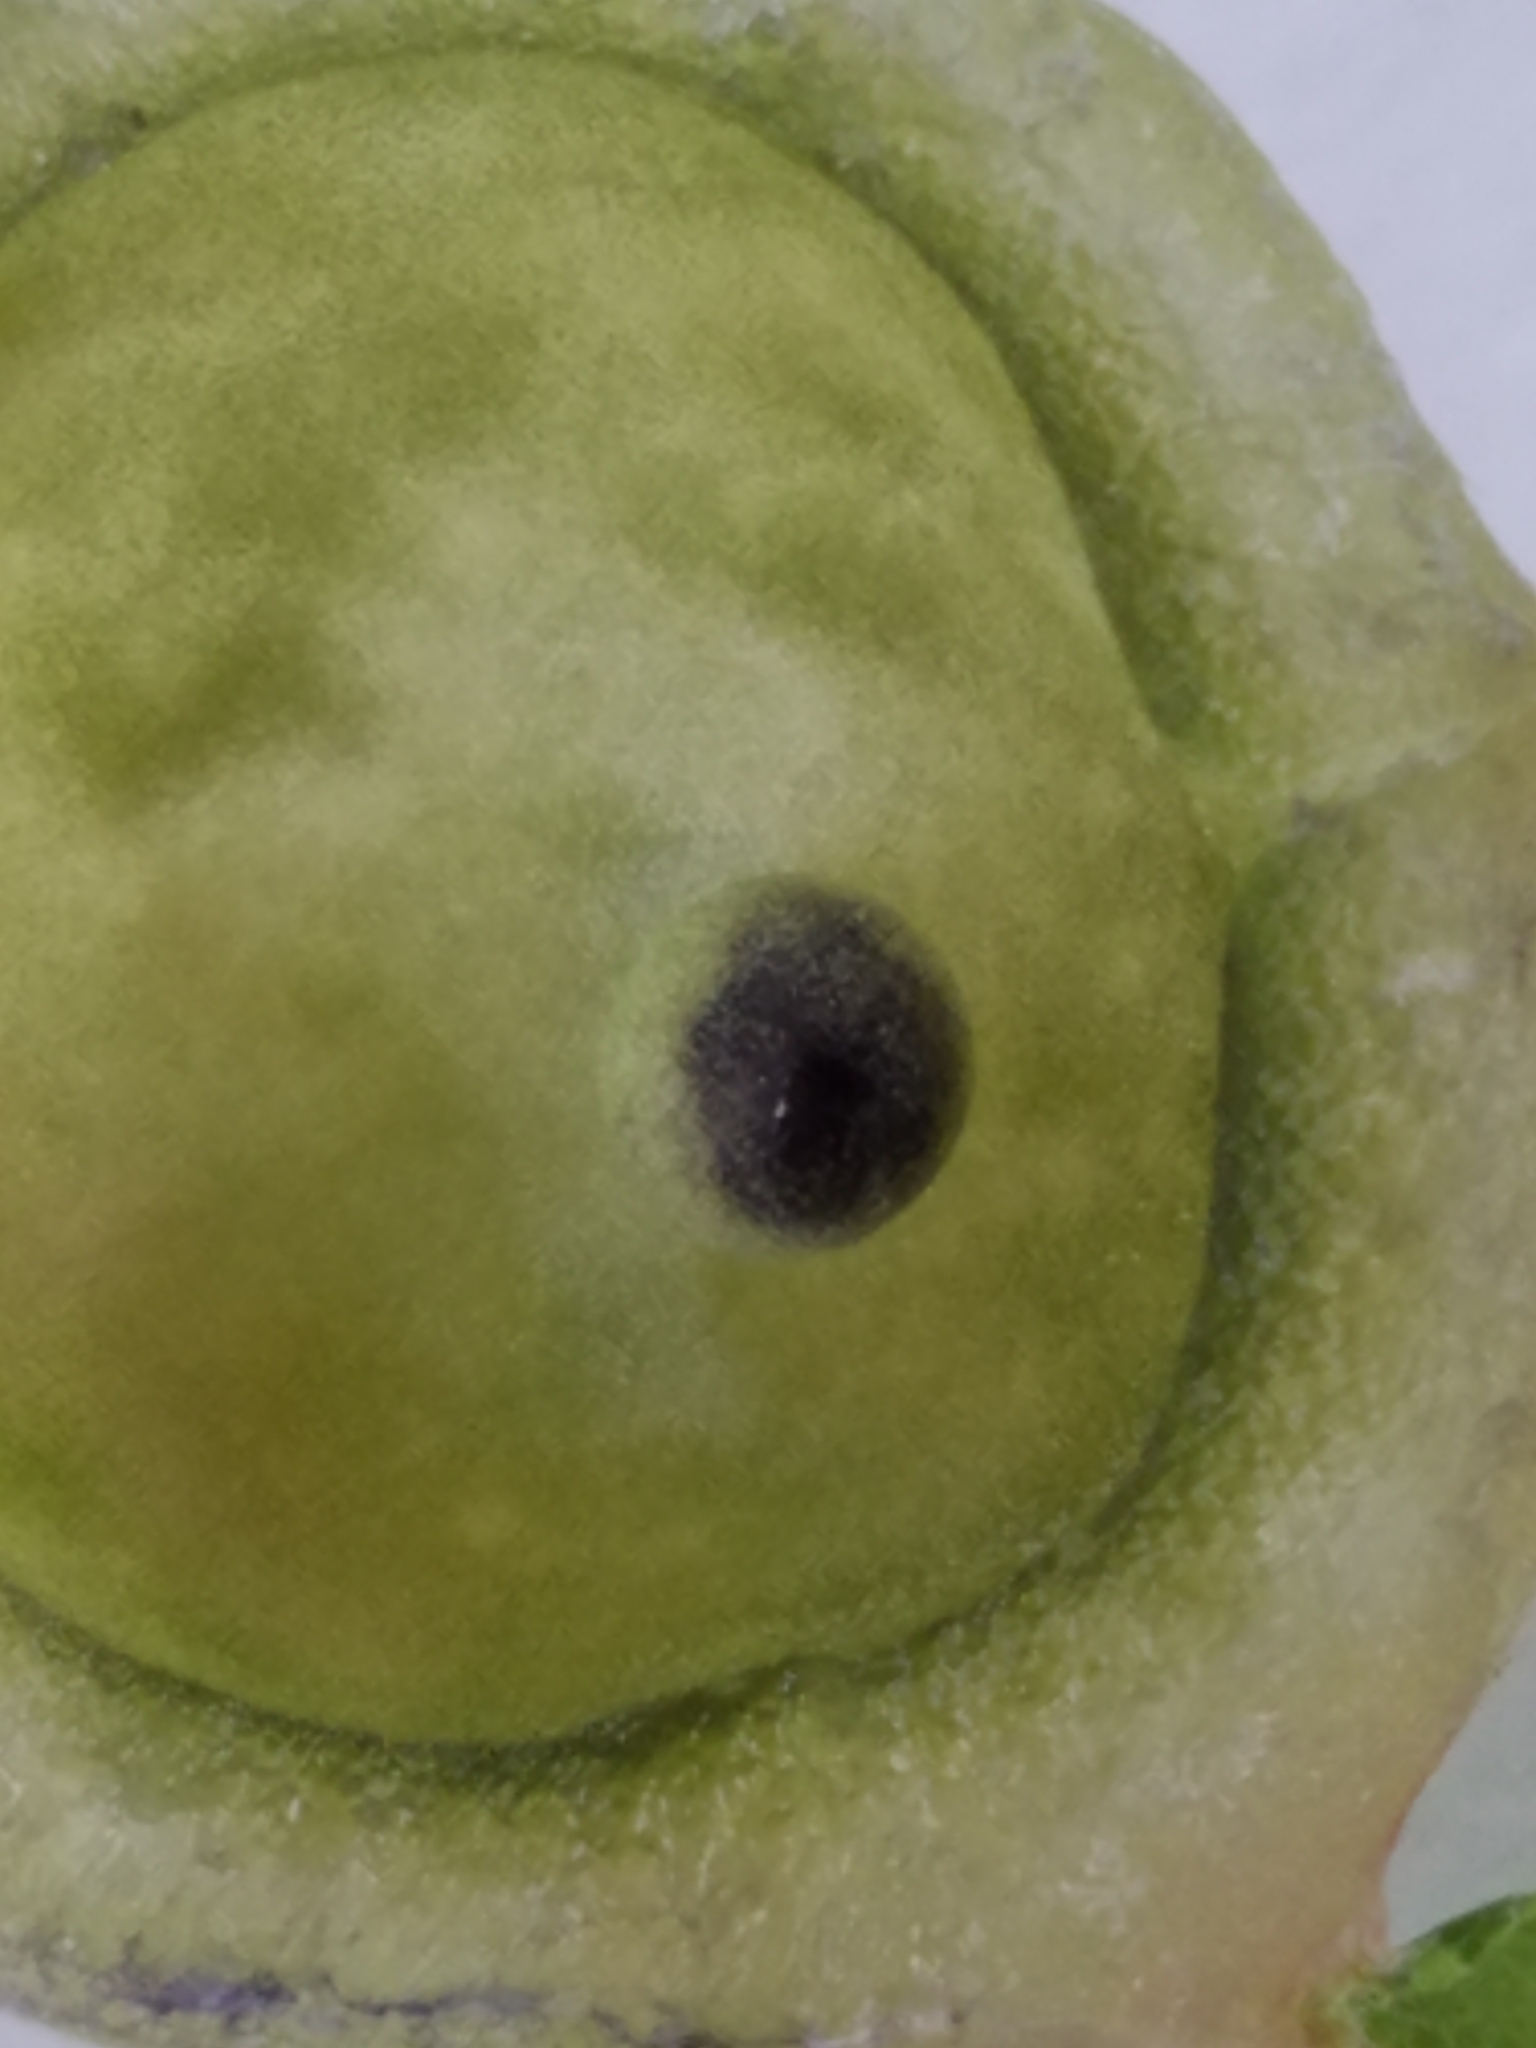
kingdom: Animalia
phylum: Arthropoda
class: Insecta
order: Hymenoptera
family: Cynipidae
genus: Dryocosmus
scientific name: Dryocosmus quercuspalustris
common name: Succulent oak gall wasp
